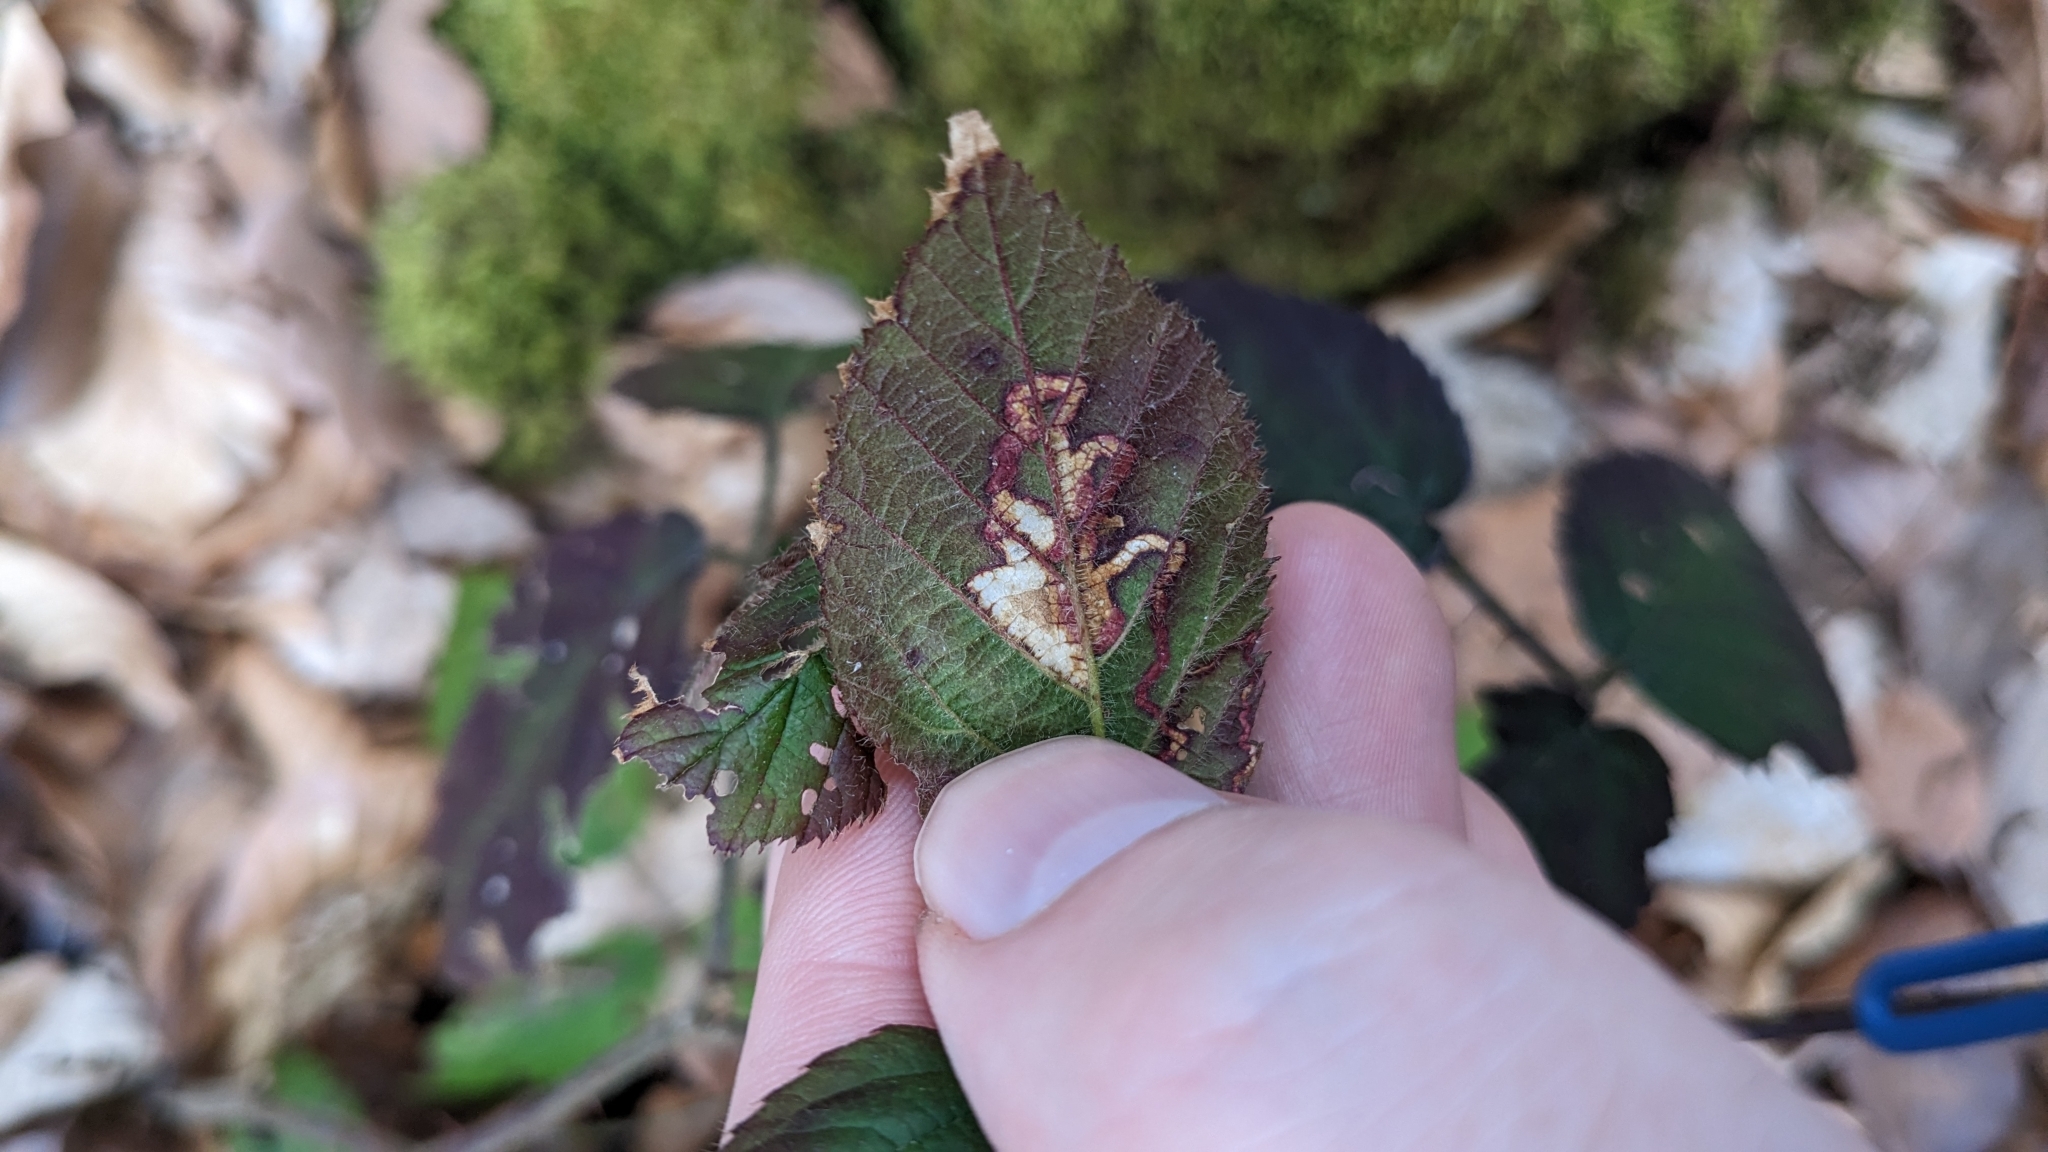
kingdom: Animalia
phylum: Arthropoda
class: Insecta
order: Lepidoptera
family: Nepticulidae
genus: Stigmella
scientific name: Stigmella aurella
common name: Golden pigmy
